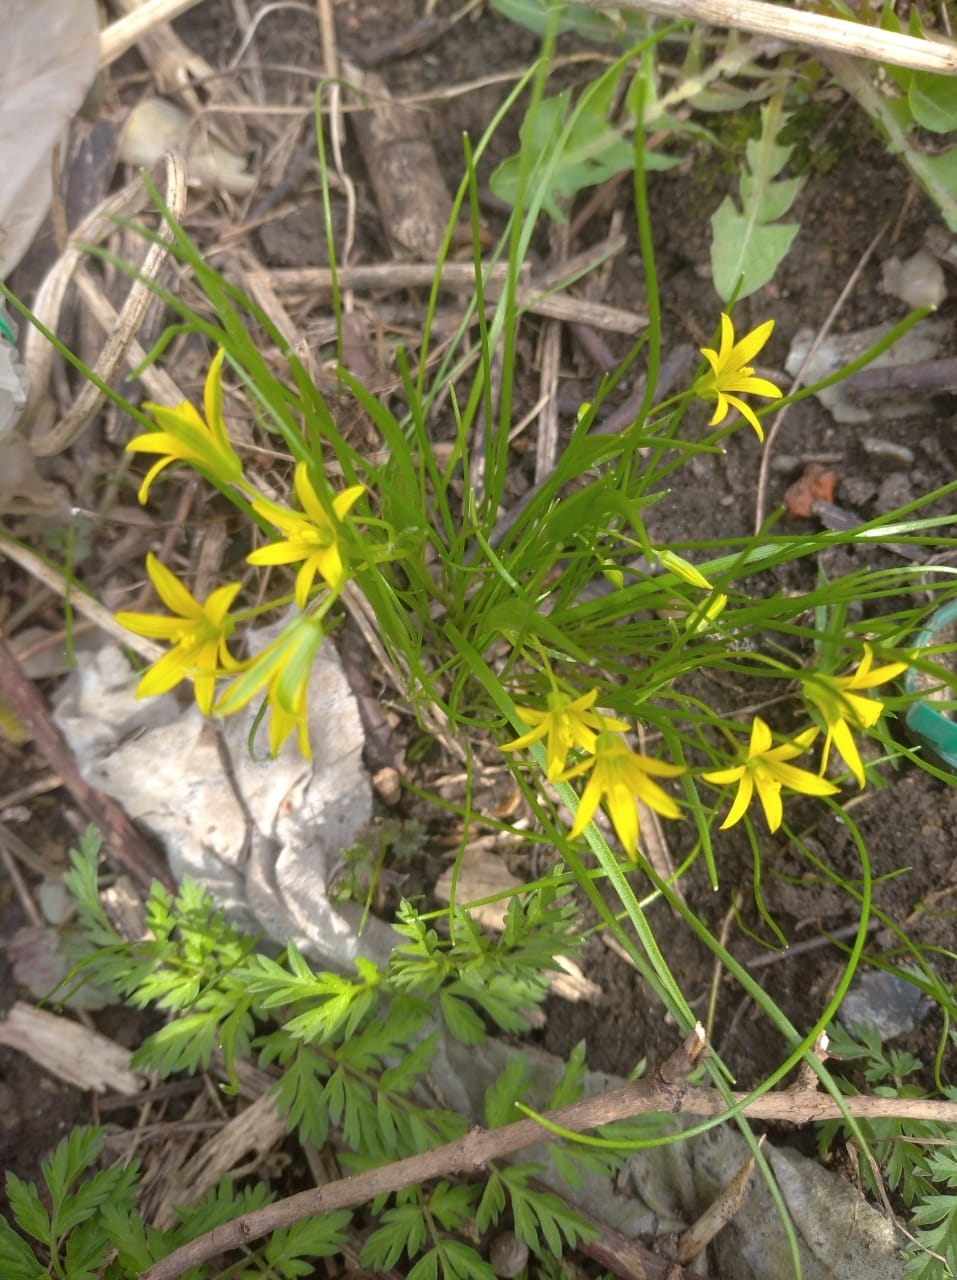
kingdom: Plantae
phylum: Tracheophyta
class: Liliopsida
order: Liliales
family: Liliaceae
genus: Gagea
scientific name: Gagea minima
